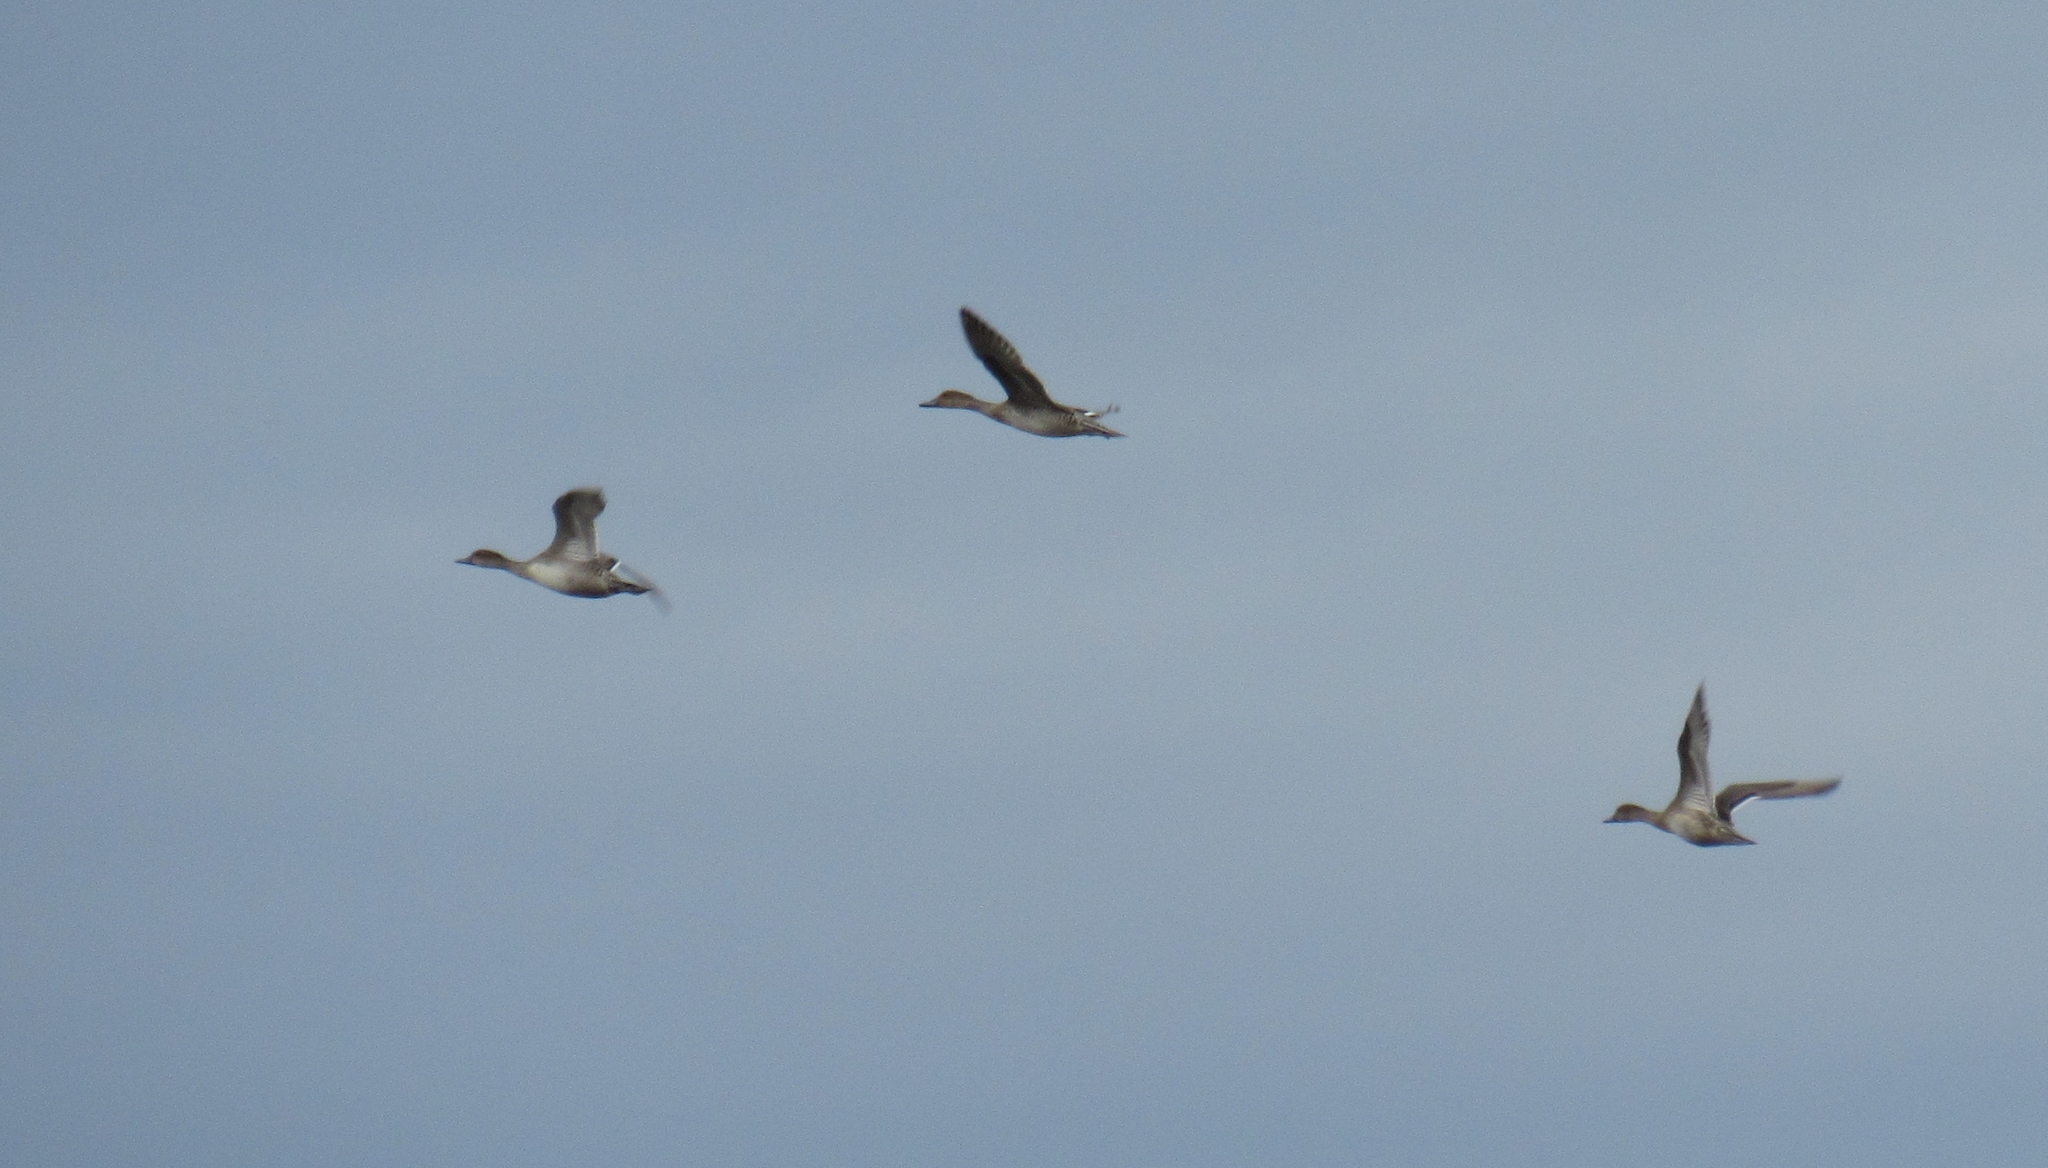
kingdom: Animalia
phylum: Chordata
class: Aves
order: Anseriformes
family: Anatidae
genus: Anas
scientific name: Anas acuta
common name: Northern pintail
